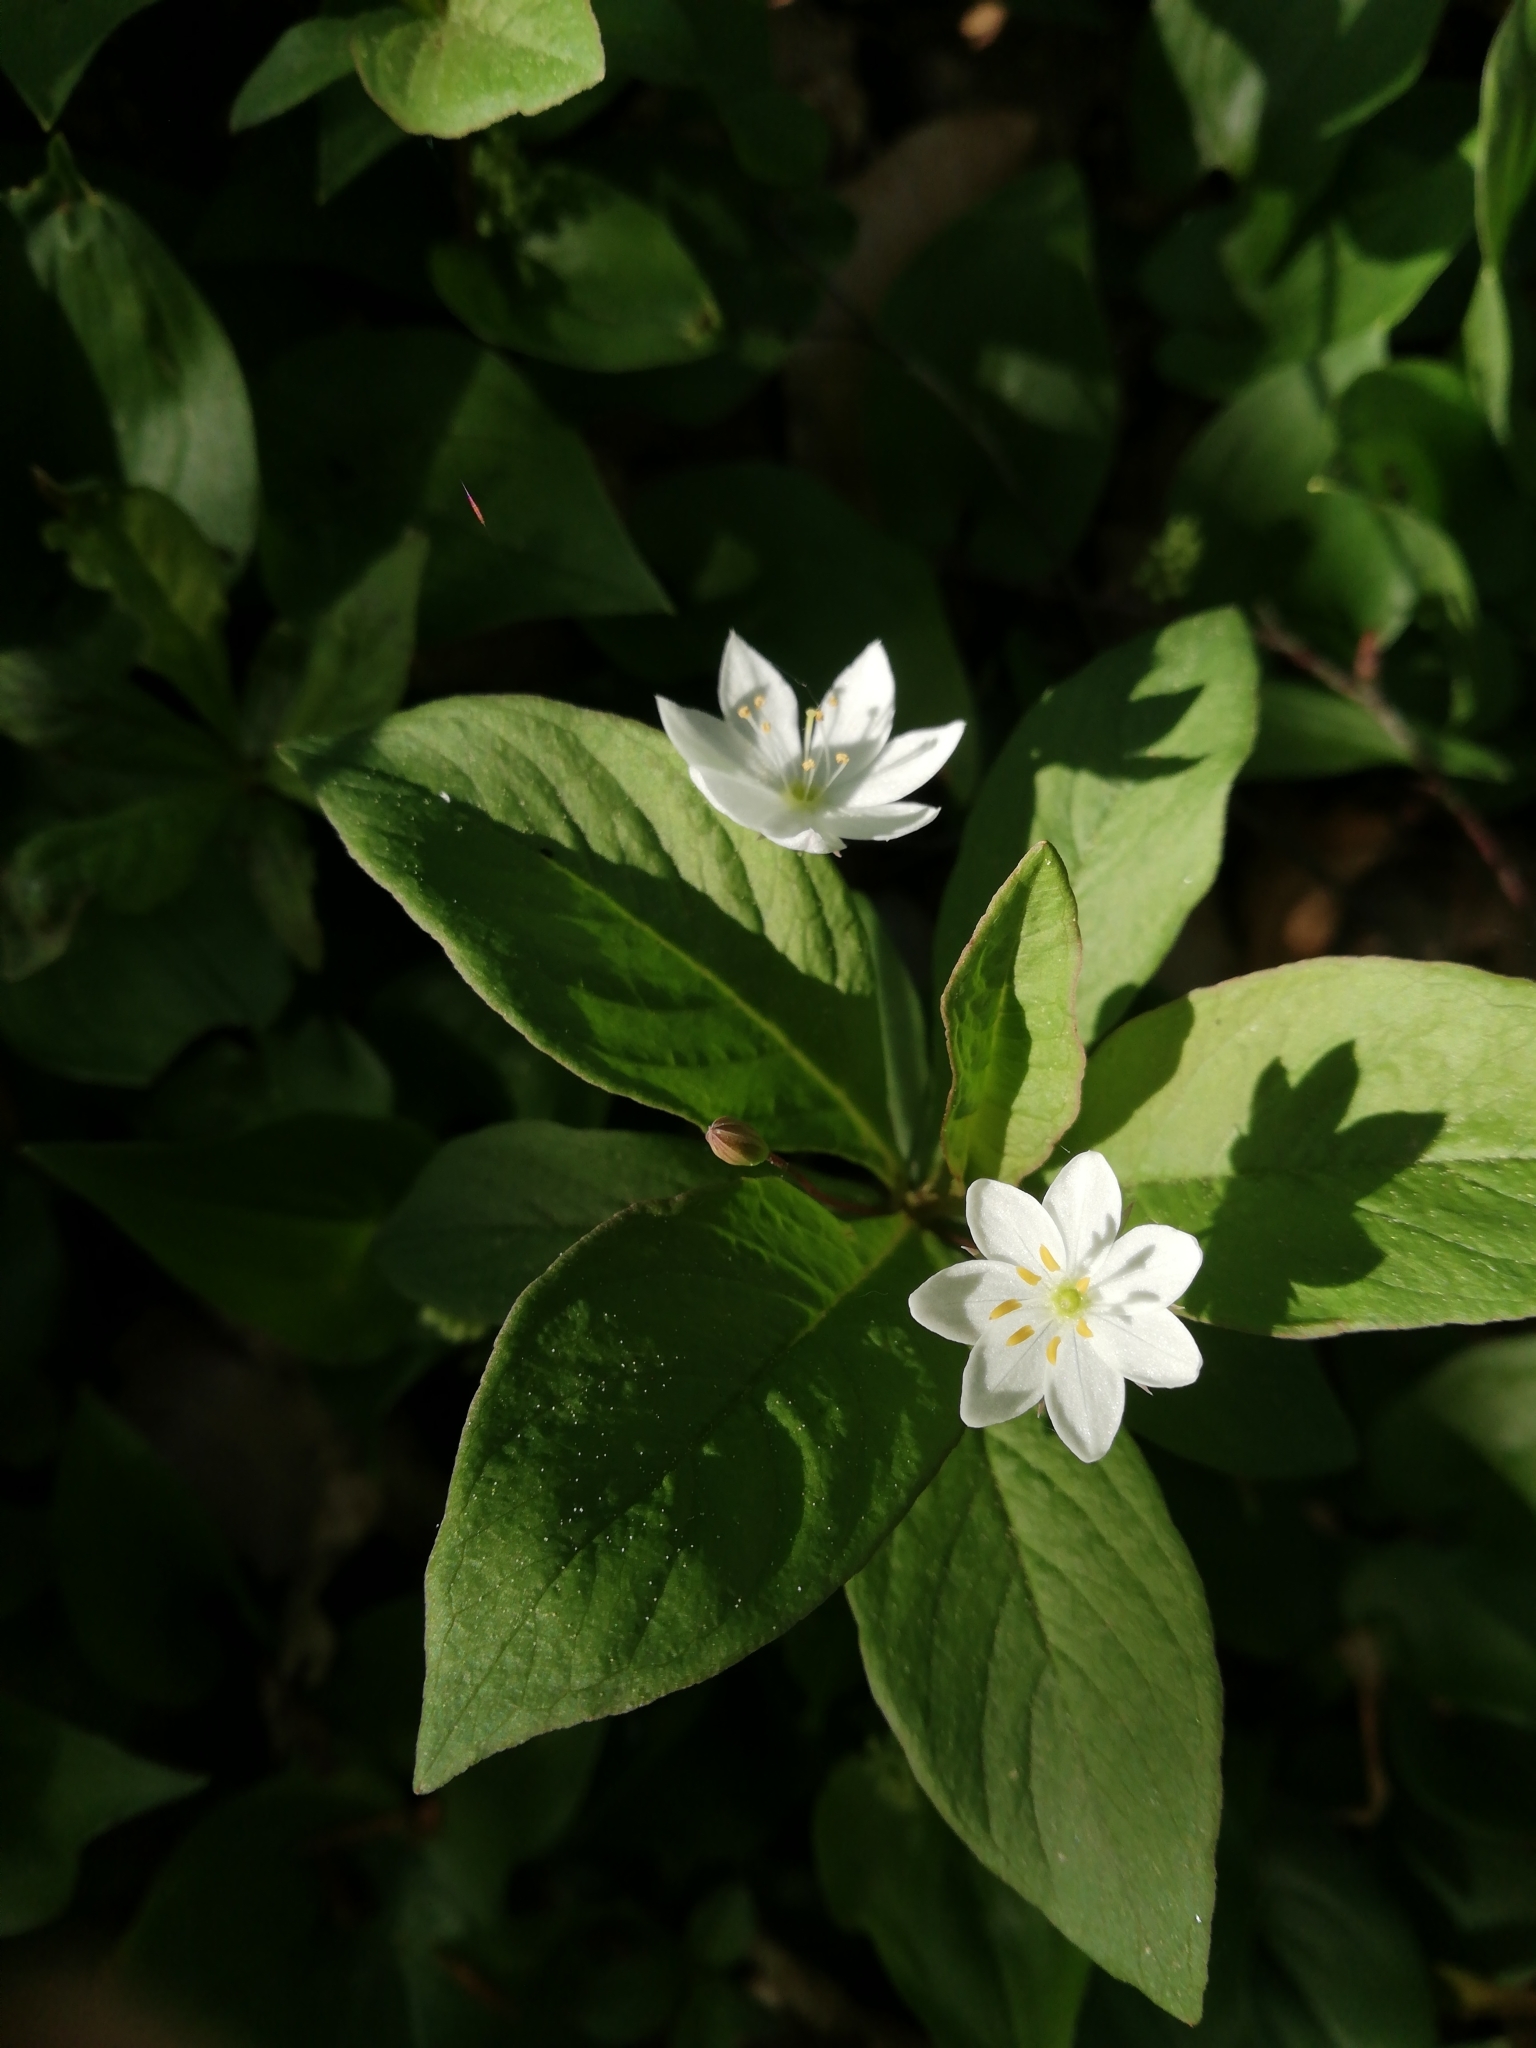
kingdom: Plantae
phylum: Tracheophyta
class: Magnoliopsida
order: Ericales
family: Primulaceae
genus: Lysimachia
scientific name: Lysimachia europaea
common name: Arctic starflower
